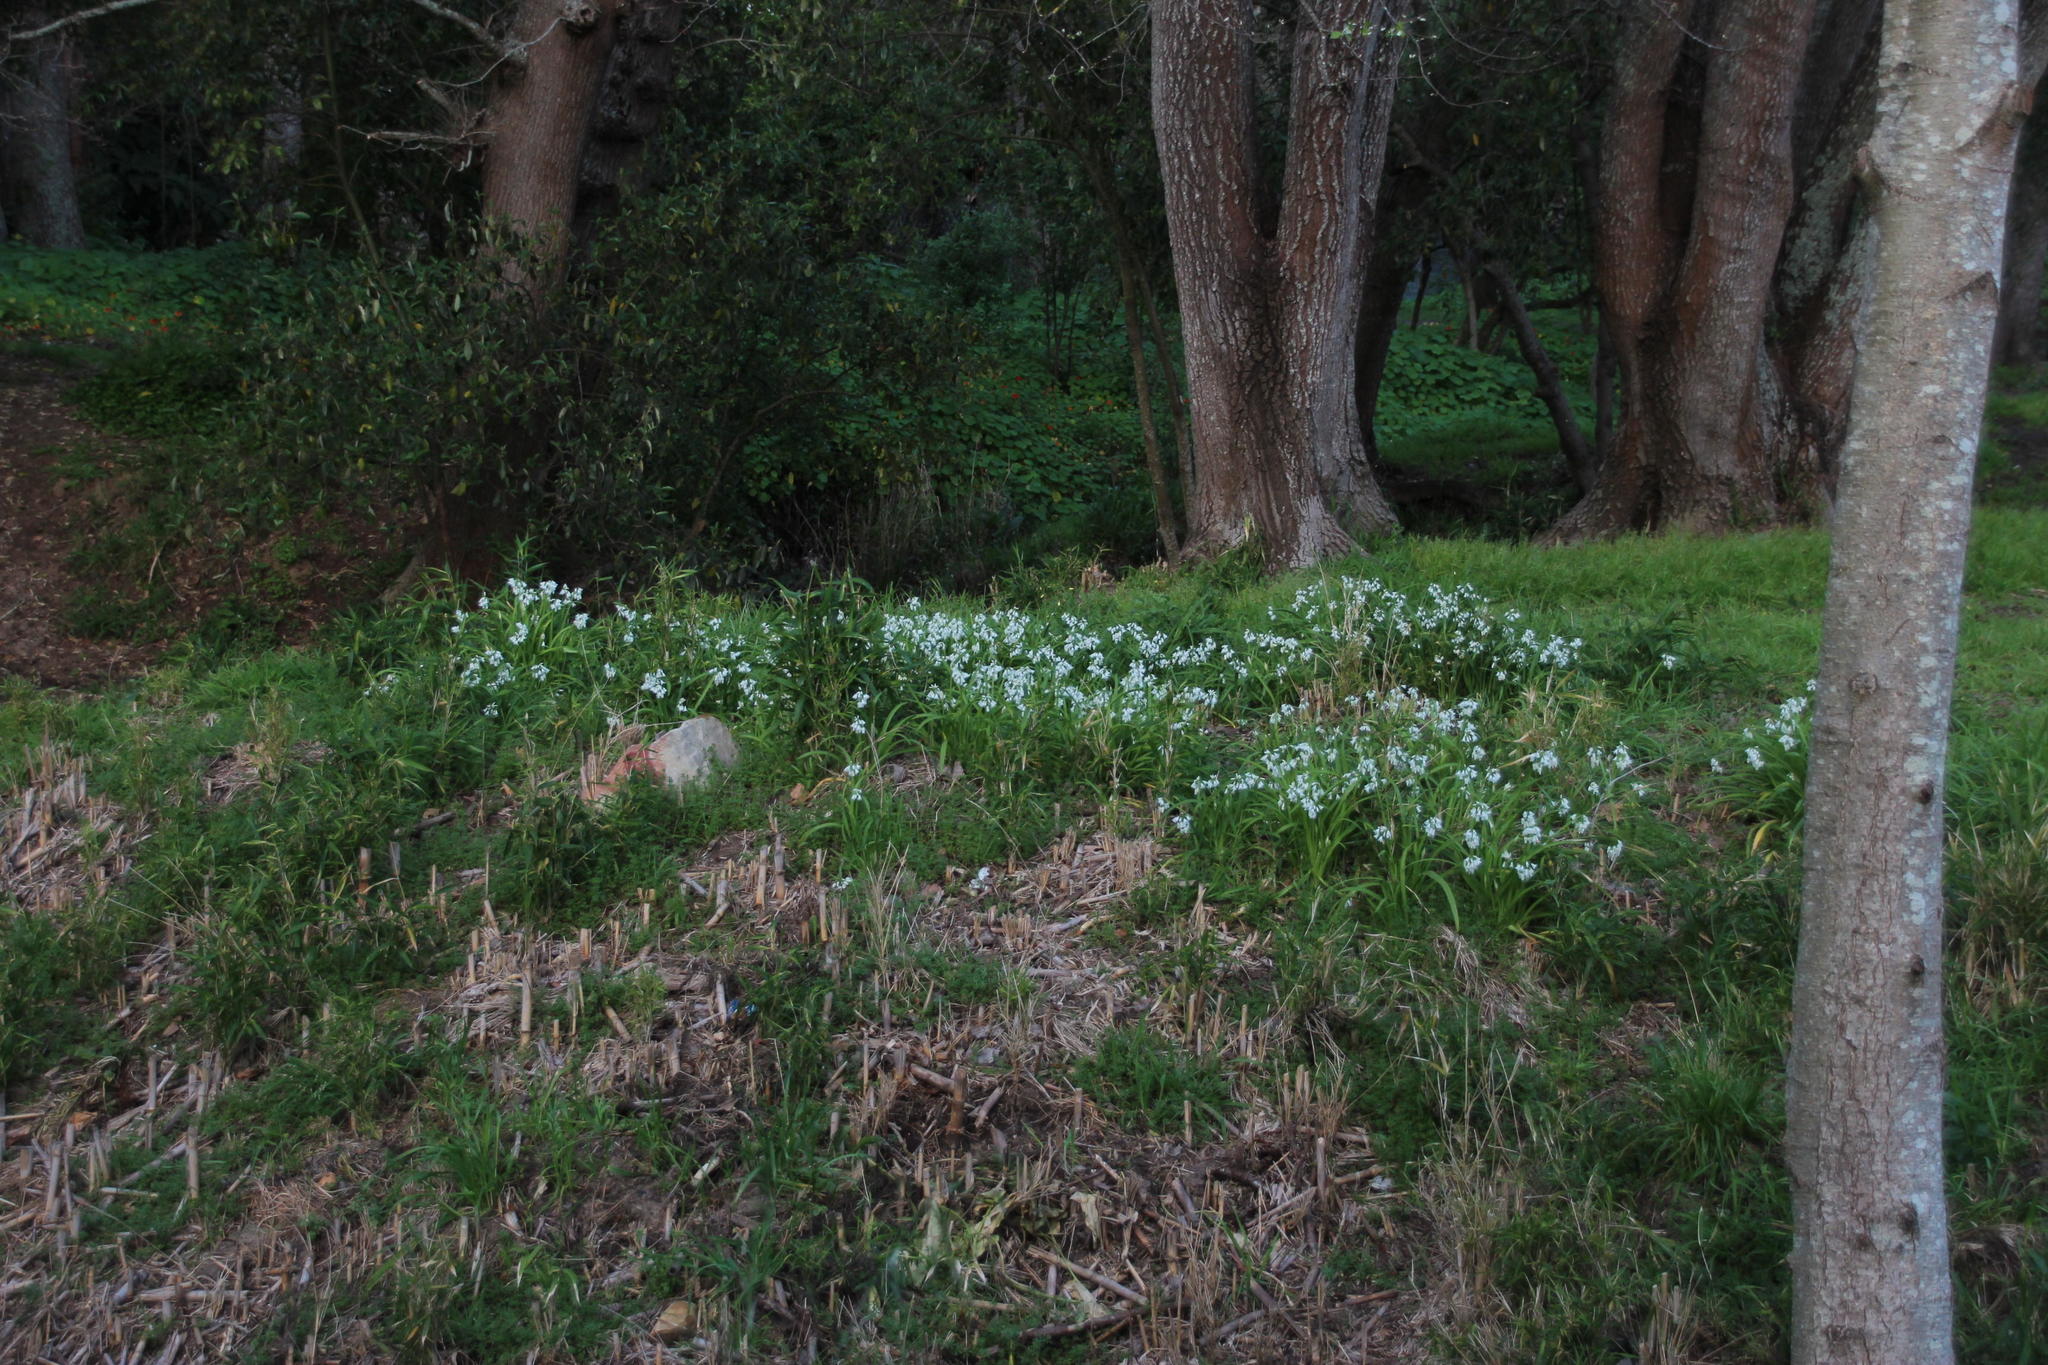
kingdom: Plantae
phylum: Tracheophyta
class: Liliopsida
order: Asparagales
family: Amaryllidaceae
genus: Allium
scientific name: Allium triquetrum
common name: Three-cornered garlic
